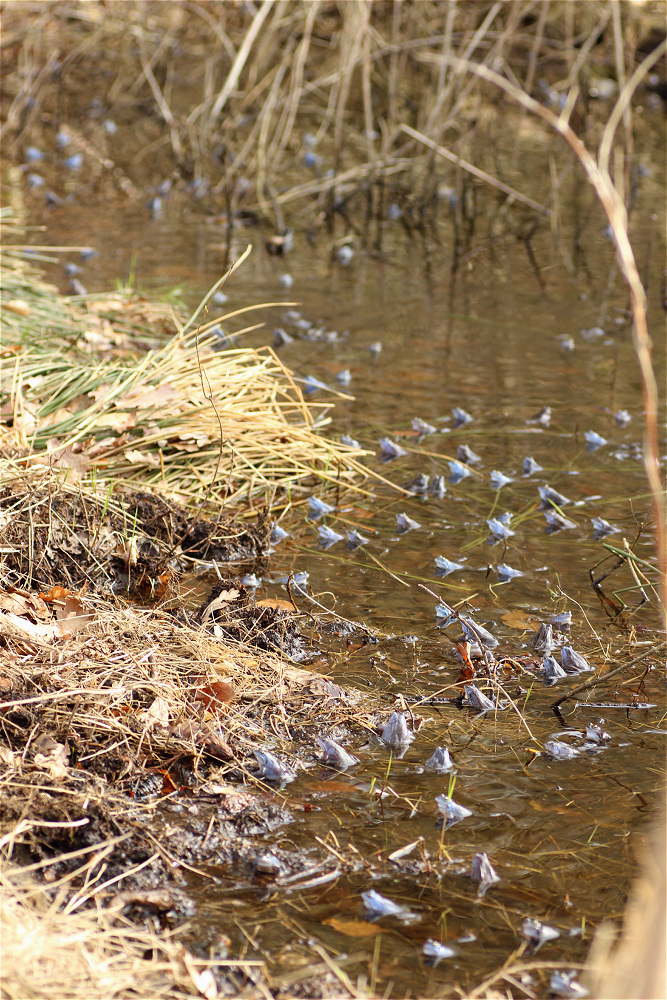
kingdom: Animalia
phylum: Chordata
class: Amphibia
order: Anura
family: Ranidae
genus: Rana
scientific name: Rana arvalis
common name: Moor frog
